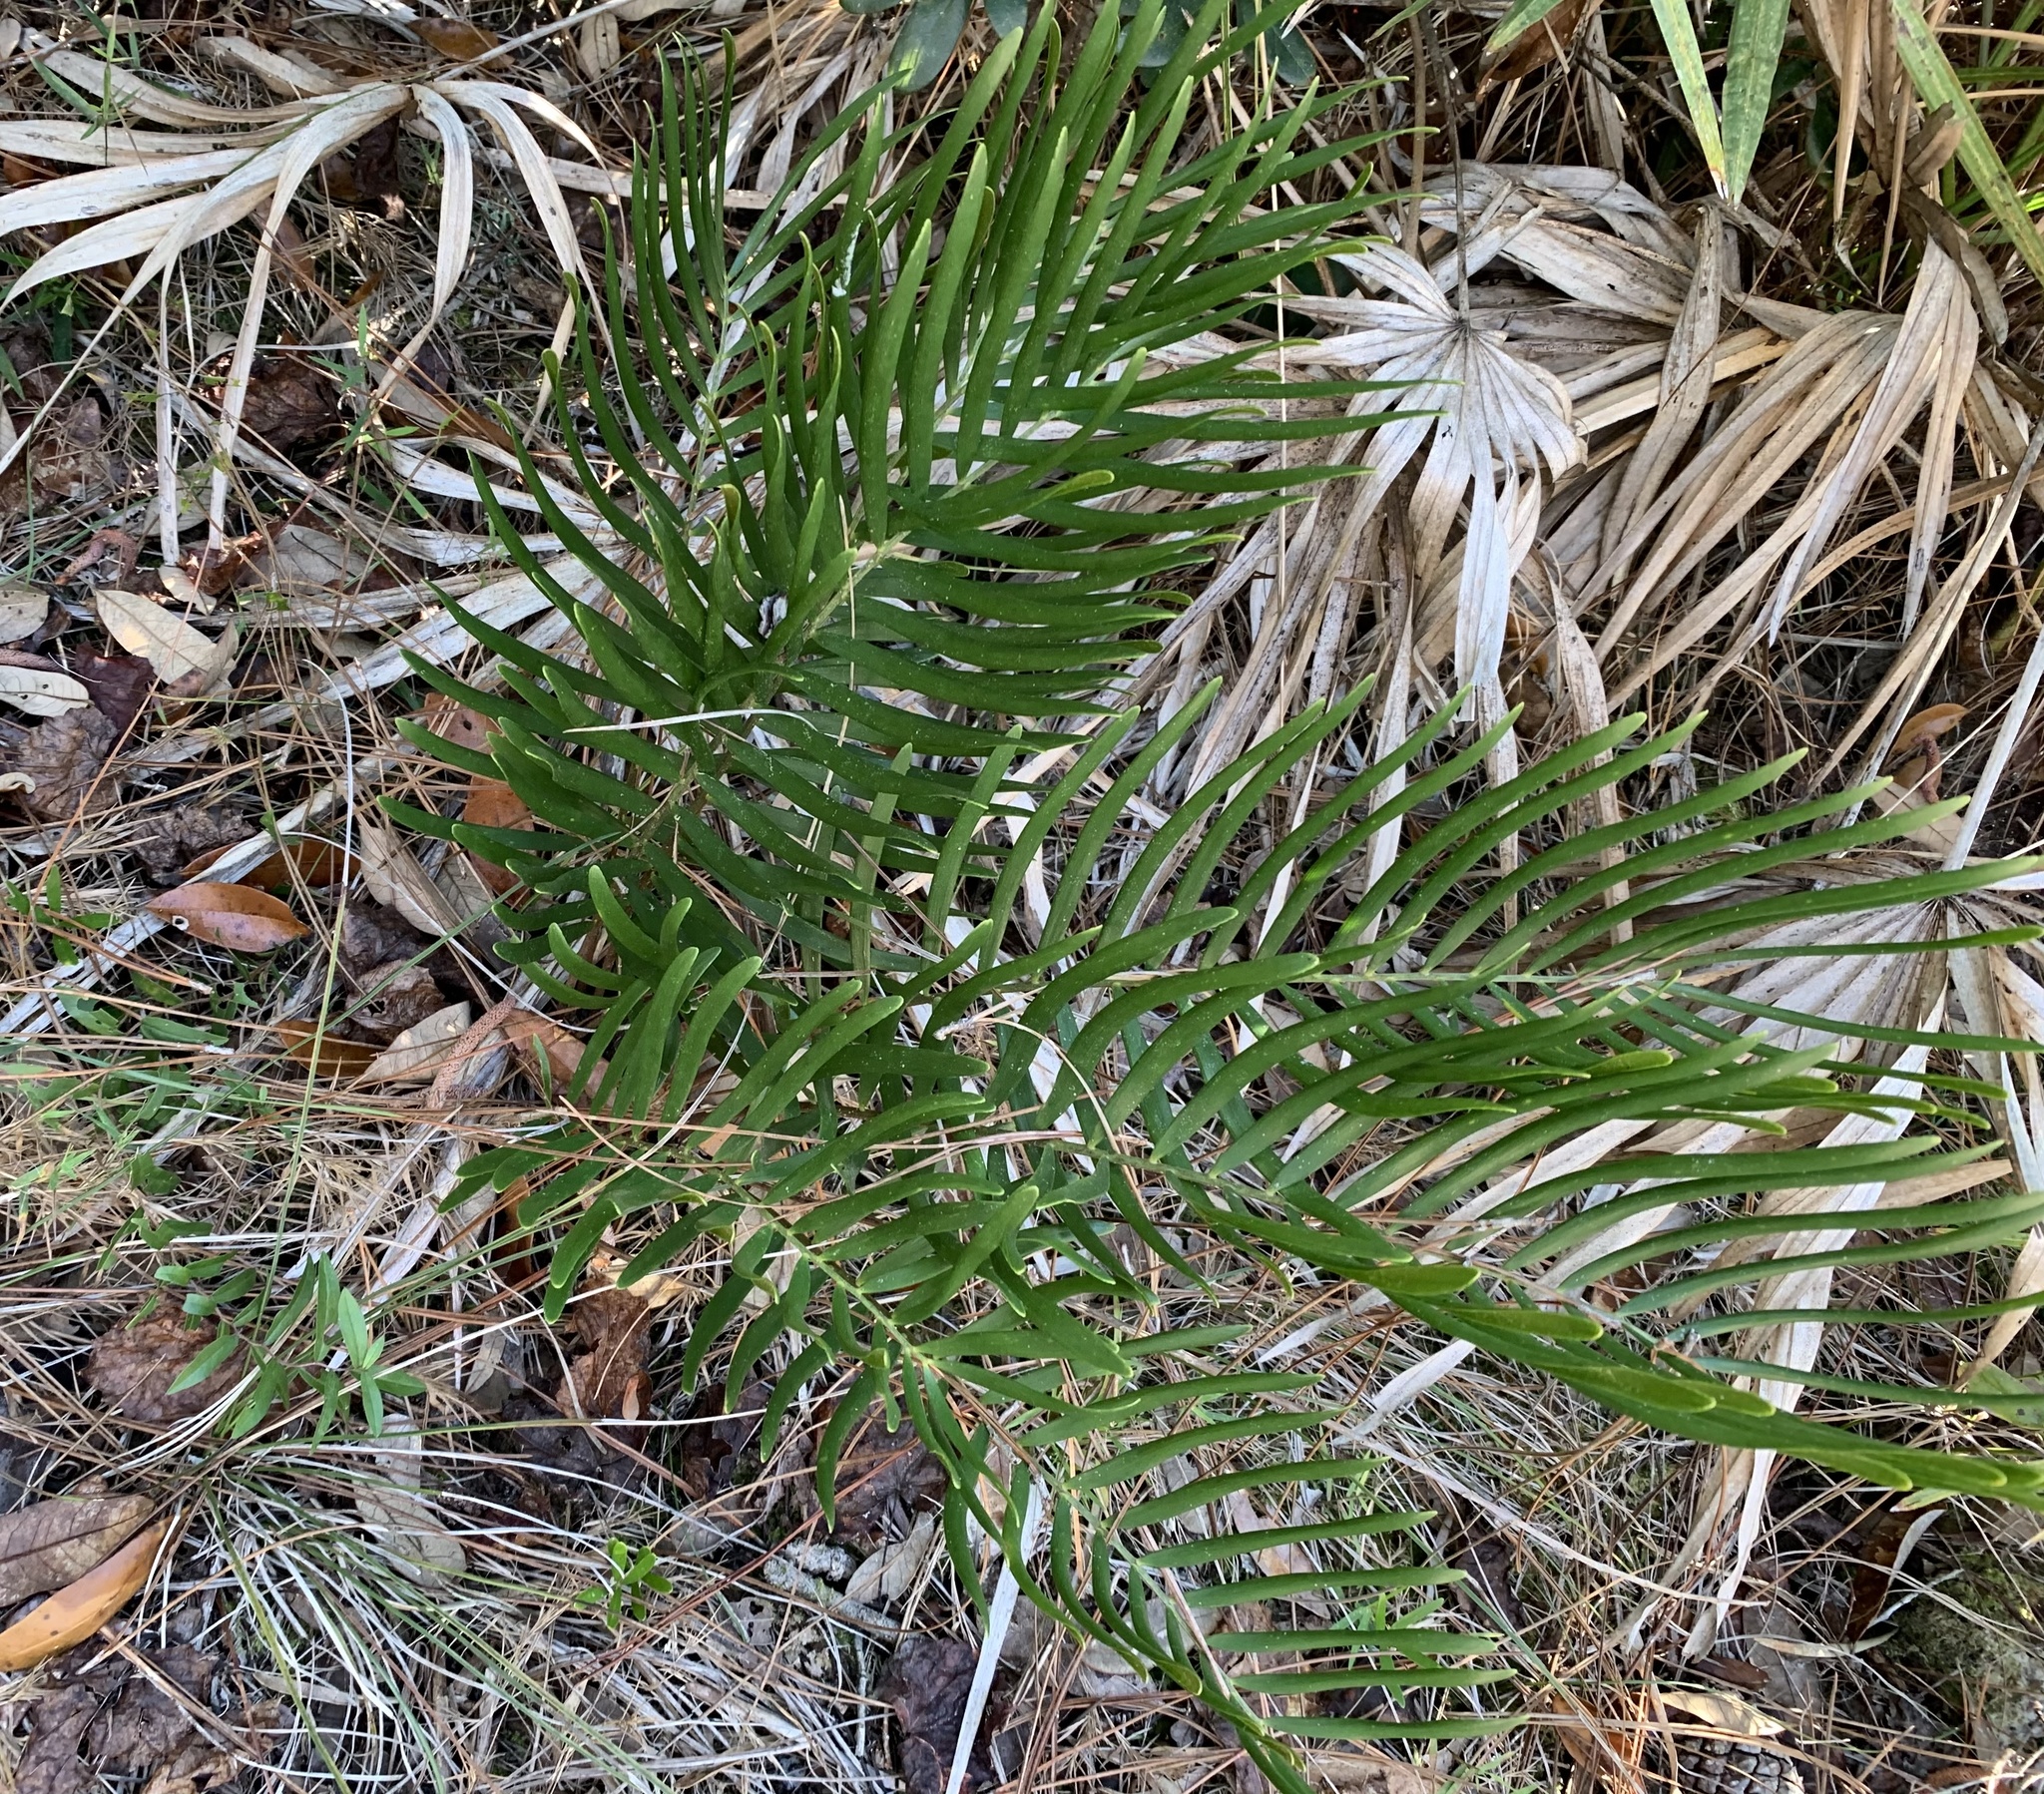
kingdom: Plantae
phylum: Tracheophyta
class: Cycadopsida
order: Cycadales
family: Zamiaceae
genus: Zamia
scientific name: Zamia integrifolia
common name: Florida arrowroot
